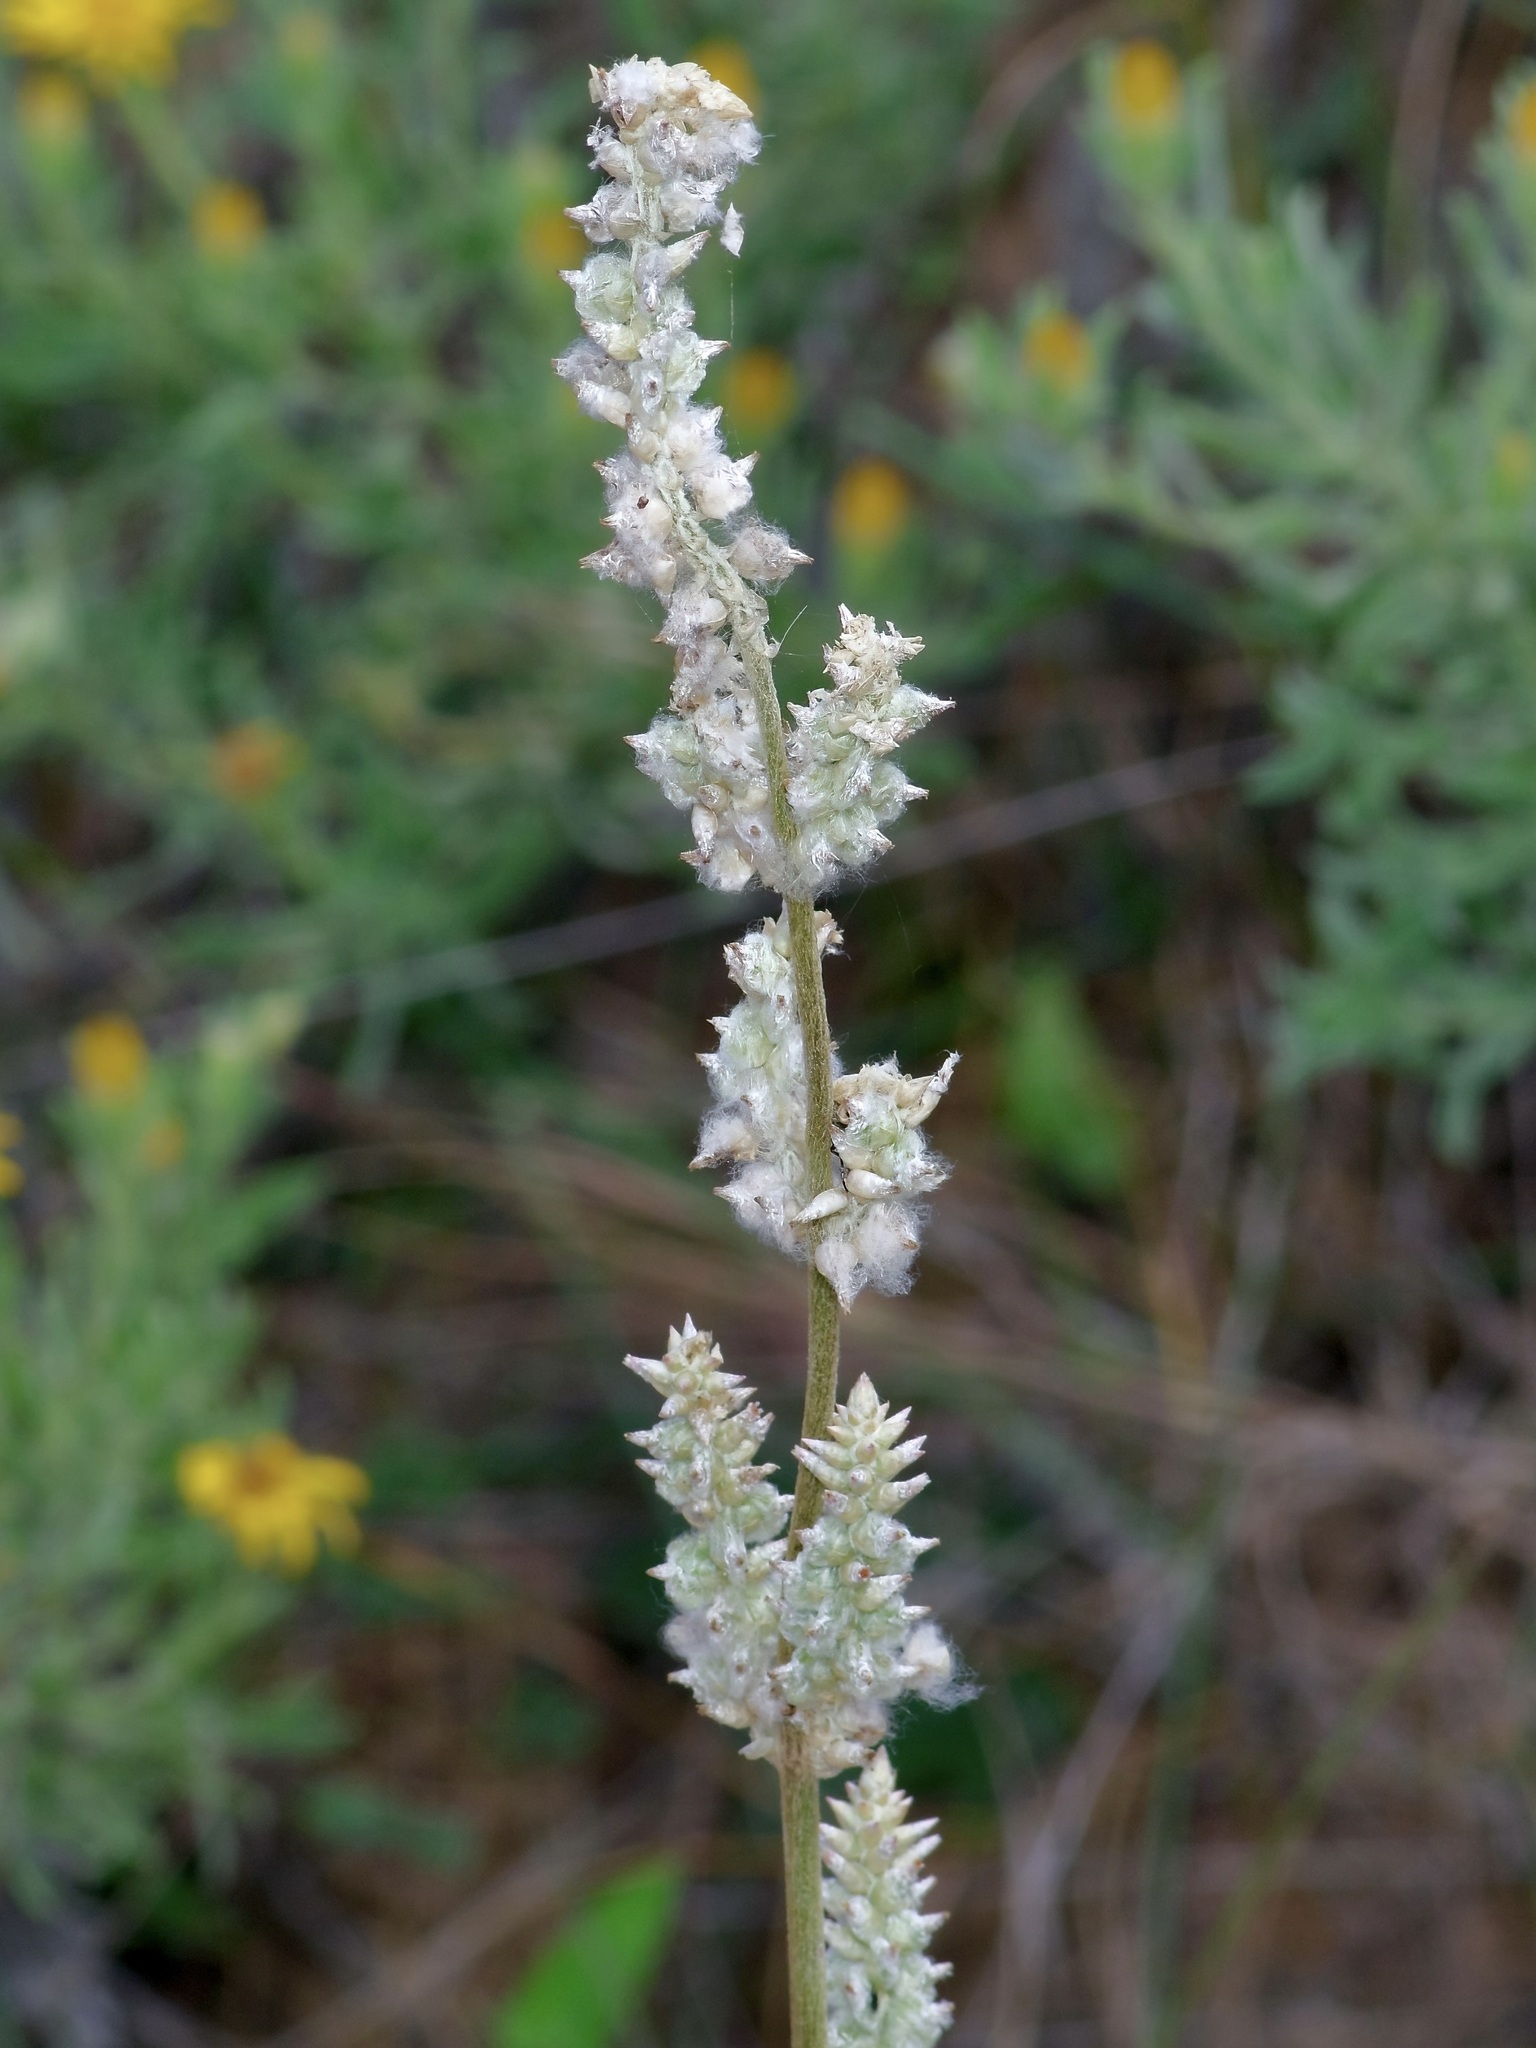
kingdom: Plantae
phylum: Tracheophyta
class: Magnoliopsida
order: Caryophyllales
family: Amaranthaceae
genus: Froelichia
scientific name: Froelichia gracilis
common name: Slender cottonweed
